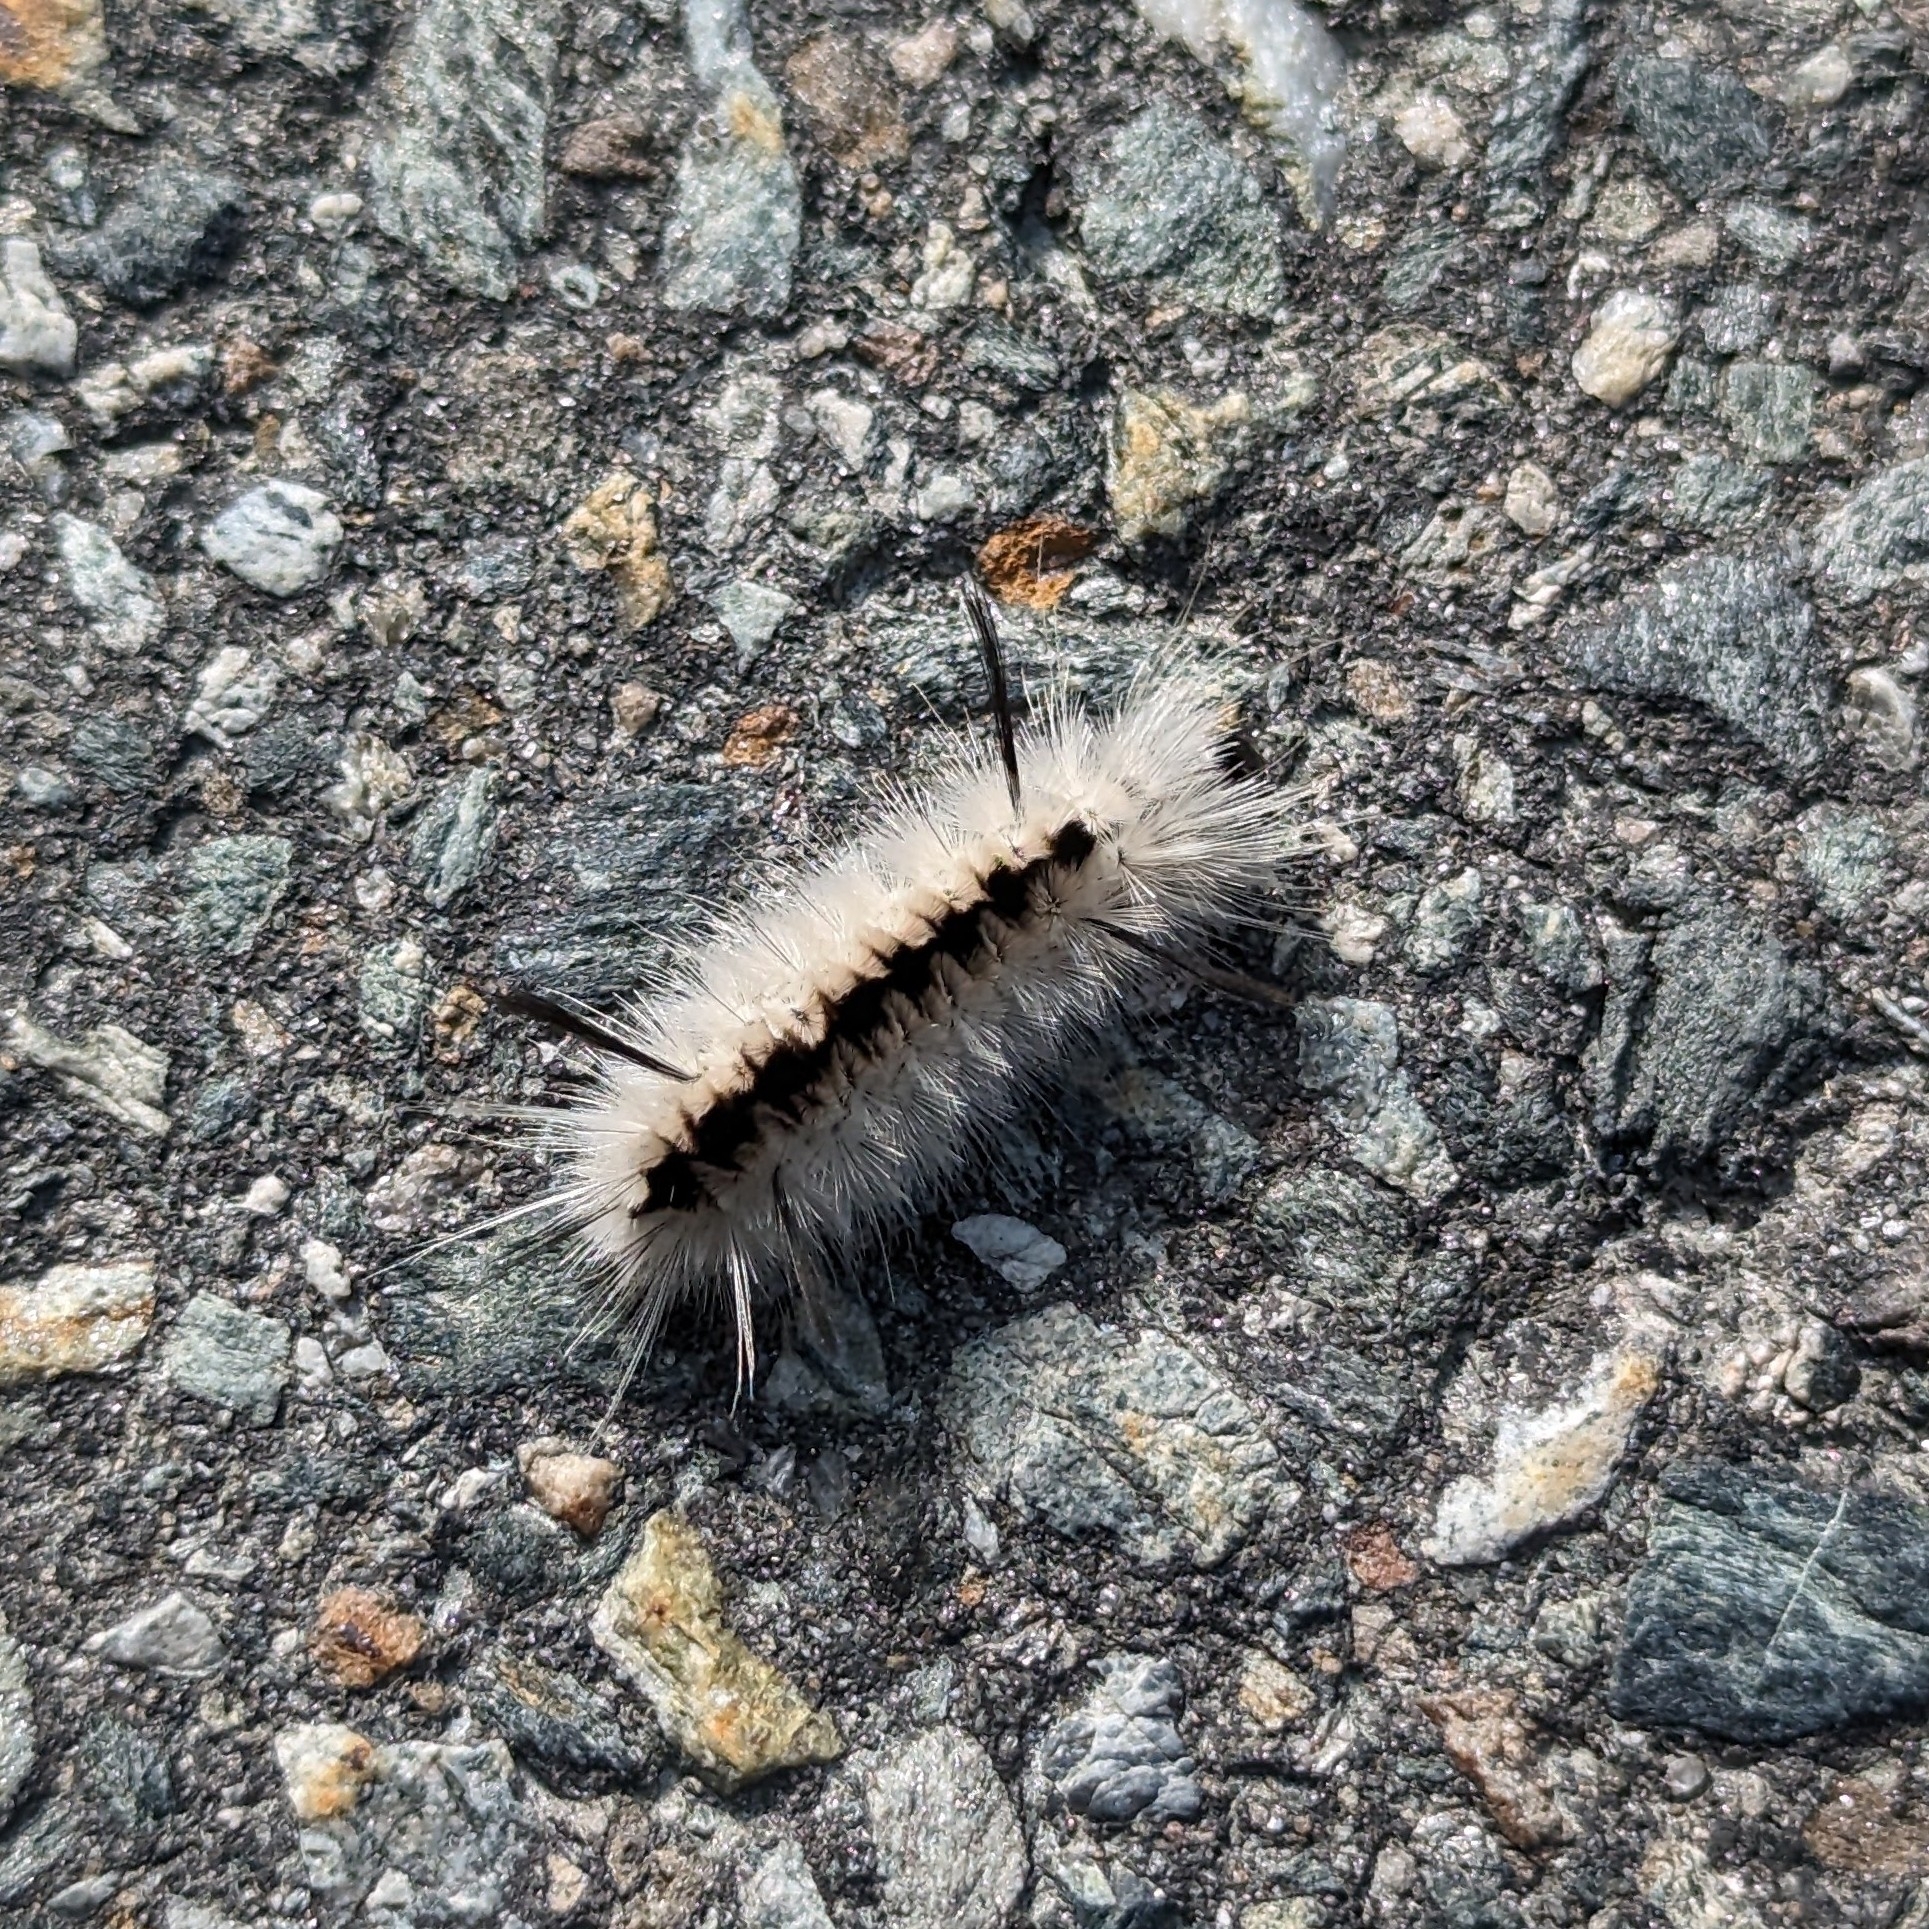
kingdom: Animalia
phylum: Arthropoda
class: Insecta
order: Lepidoptera
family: Erebidae
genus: Lophocampa
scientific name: Lophocampa caryae
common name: Hickory tussock moth
